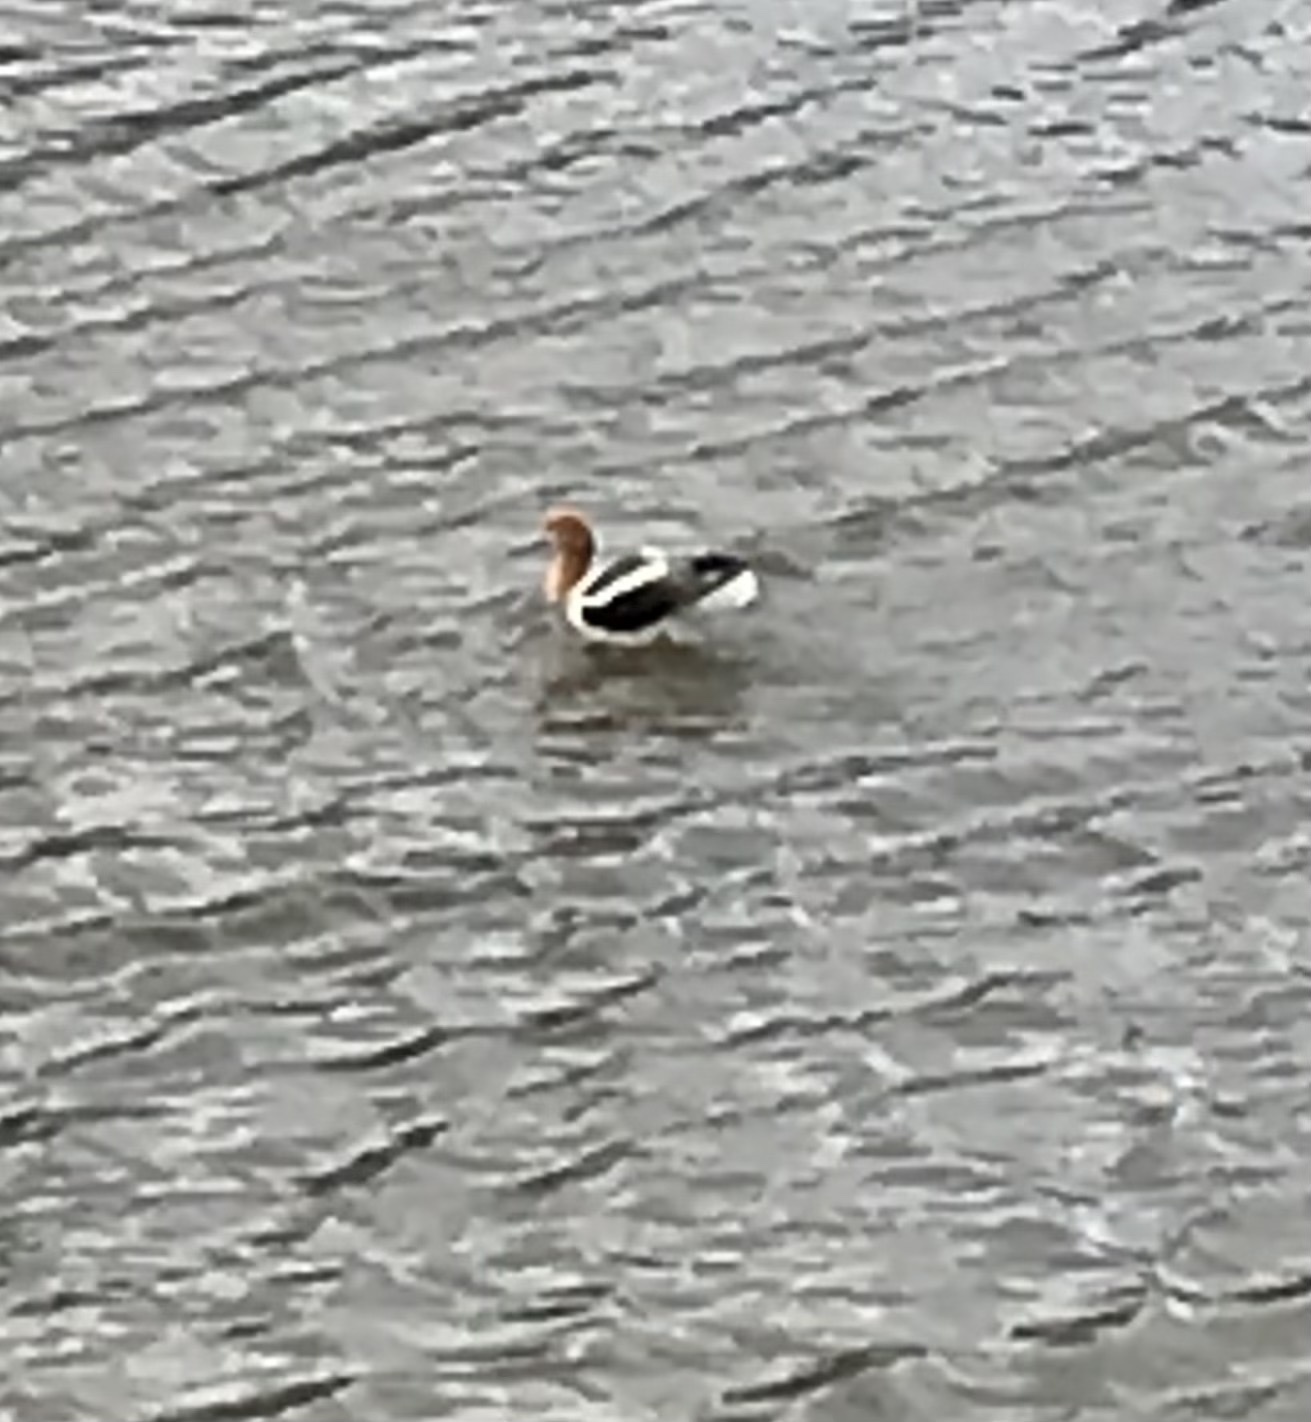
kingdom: Animalia
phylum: Chordata
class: Aves
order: Charadriiformes
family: Recurvirostridae
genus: Recurvirostra
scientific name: Recurvirostra americana
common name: American avocet
